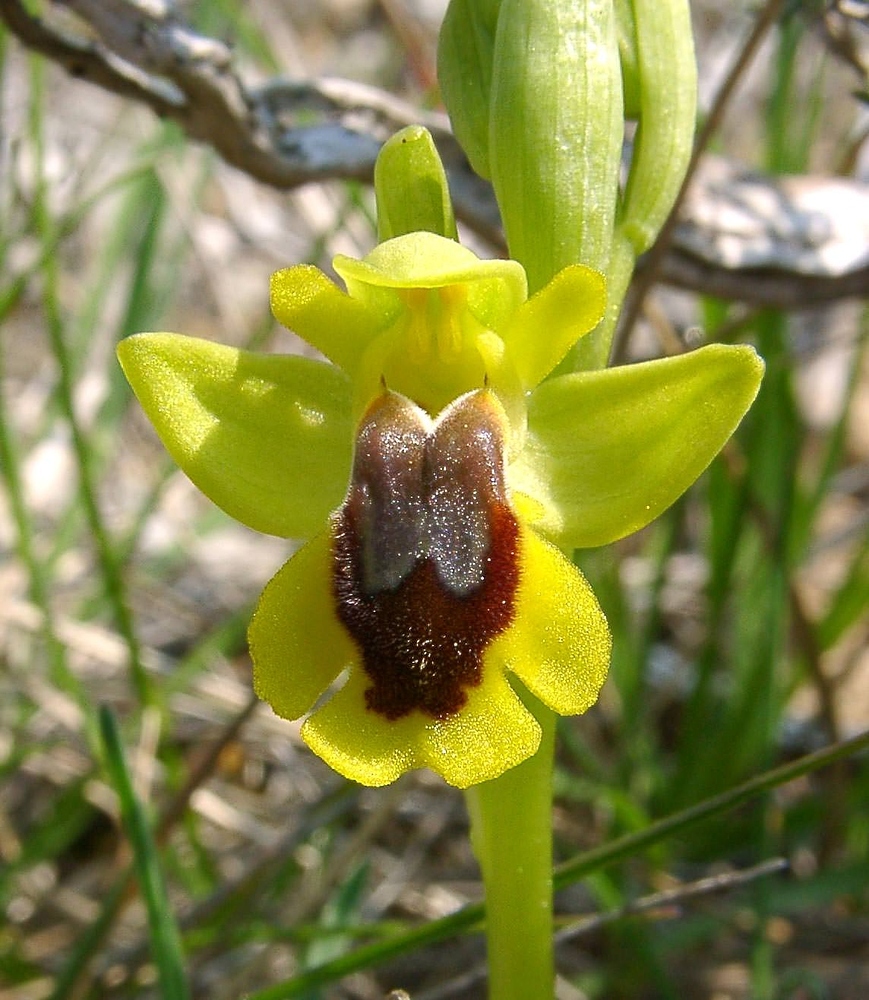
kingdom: Plantae
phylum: Tracheophyta
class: Liliopsida
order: Asparagales
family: Orchidaceae
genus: Ophrys
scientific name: Ophrys lutea
